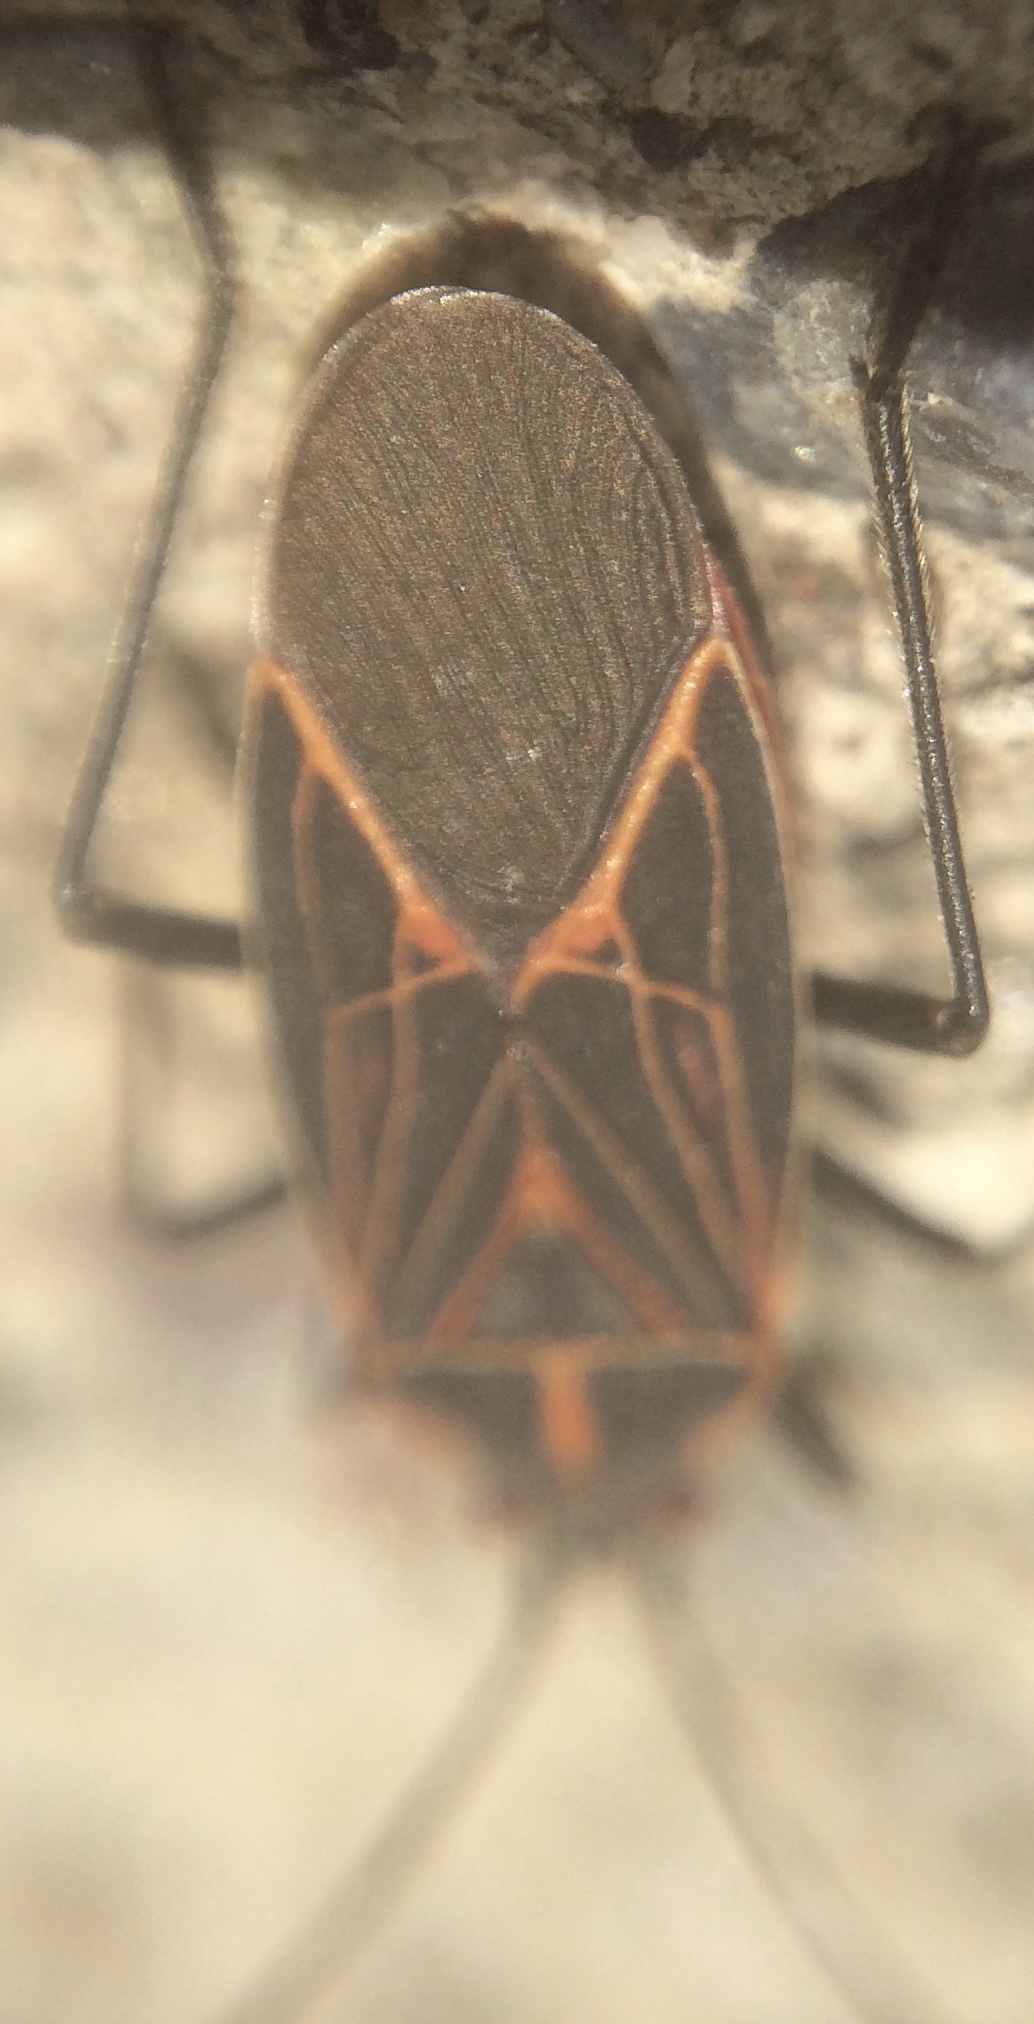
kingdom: Animalia
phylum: Arthropoda
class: Insecta
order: Hemiptera
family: Rhopalidae
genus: Boisea
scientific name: Boisea rubrolineata
